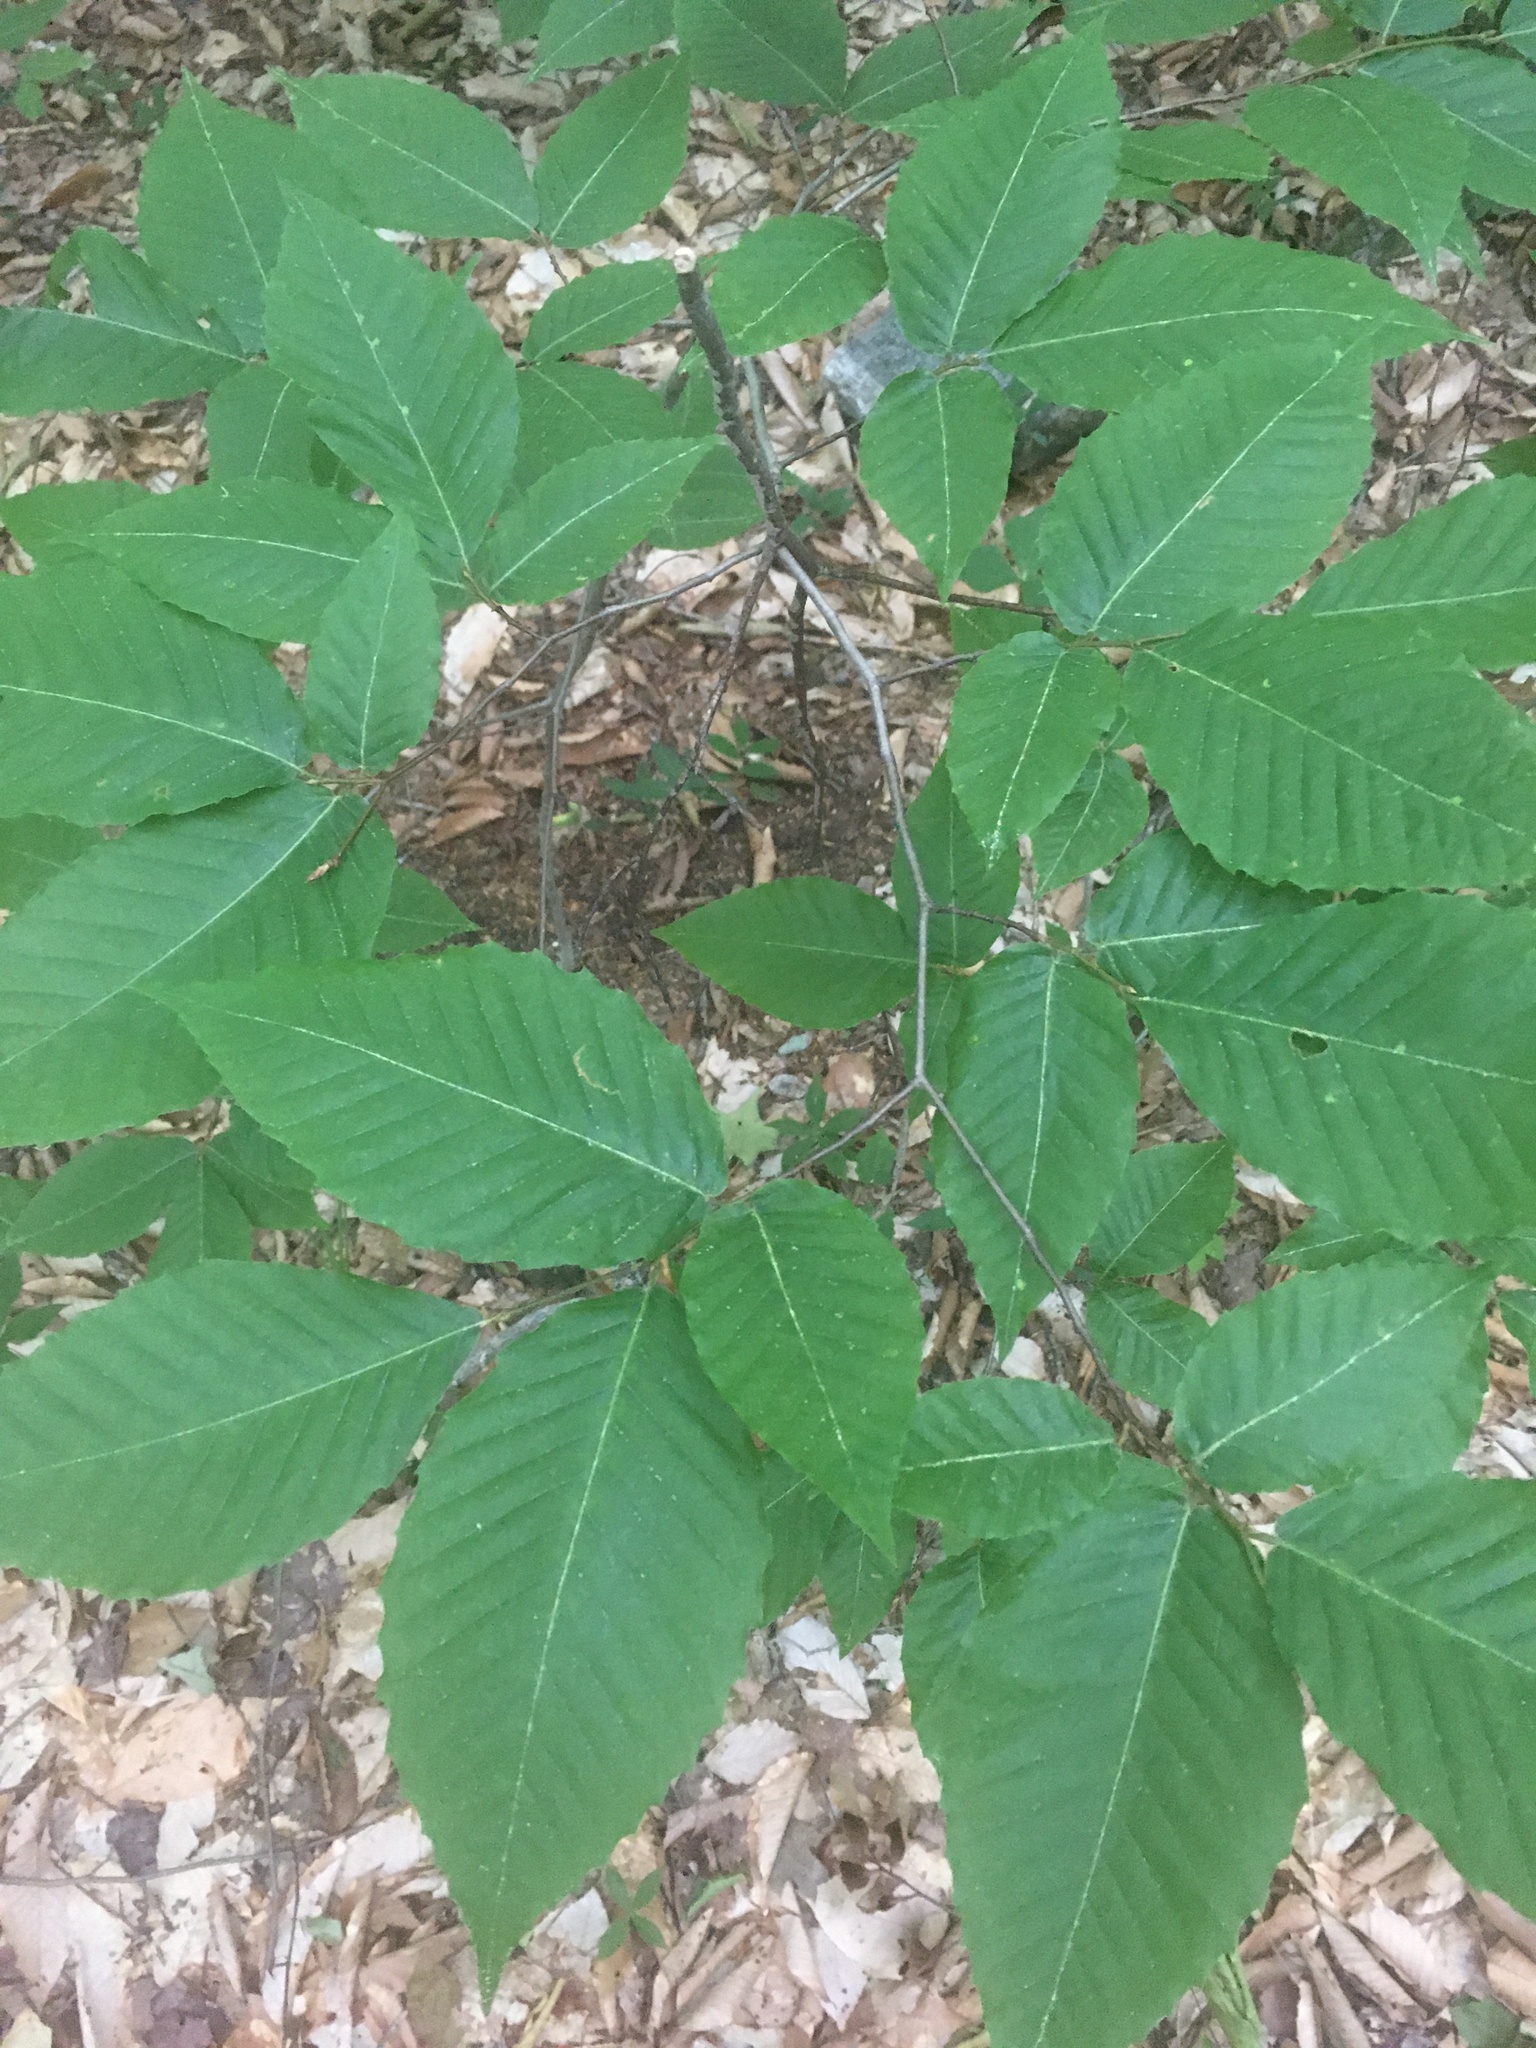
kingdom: Plantae
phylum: Tracheophyta
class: Magnoliopsida
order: Fagales
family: Fagaceae
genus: Fagus
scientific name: Fagus grandifolia
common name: American beech
